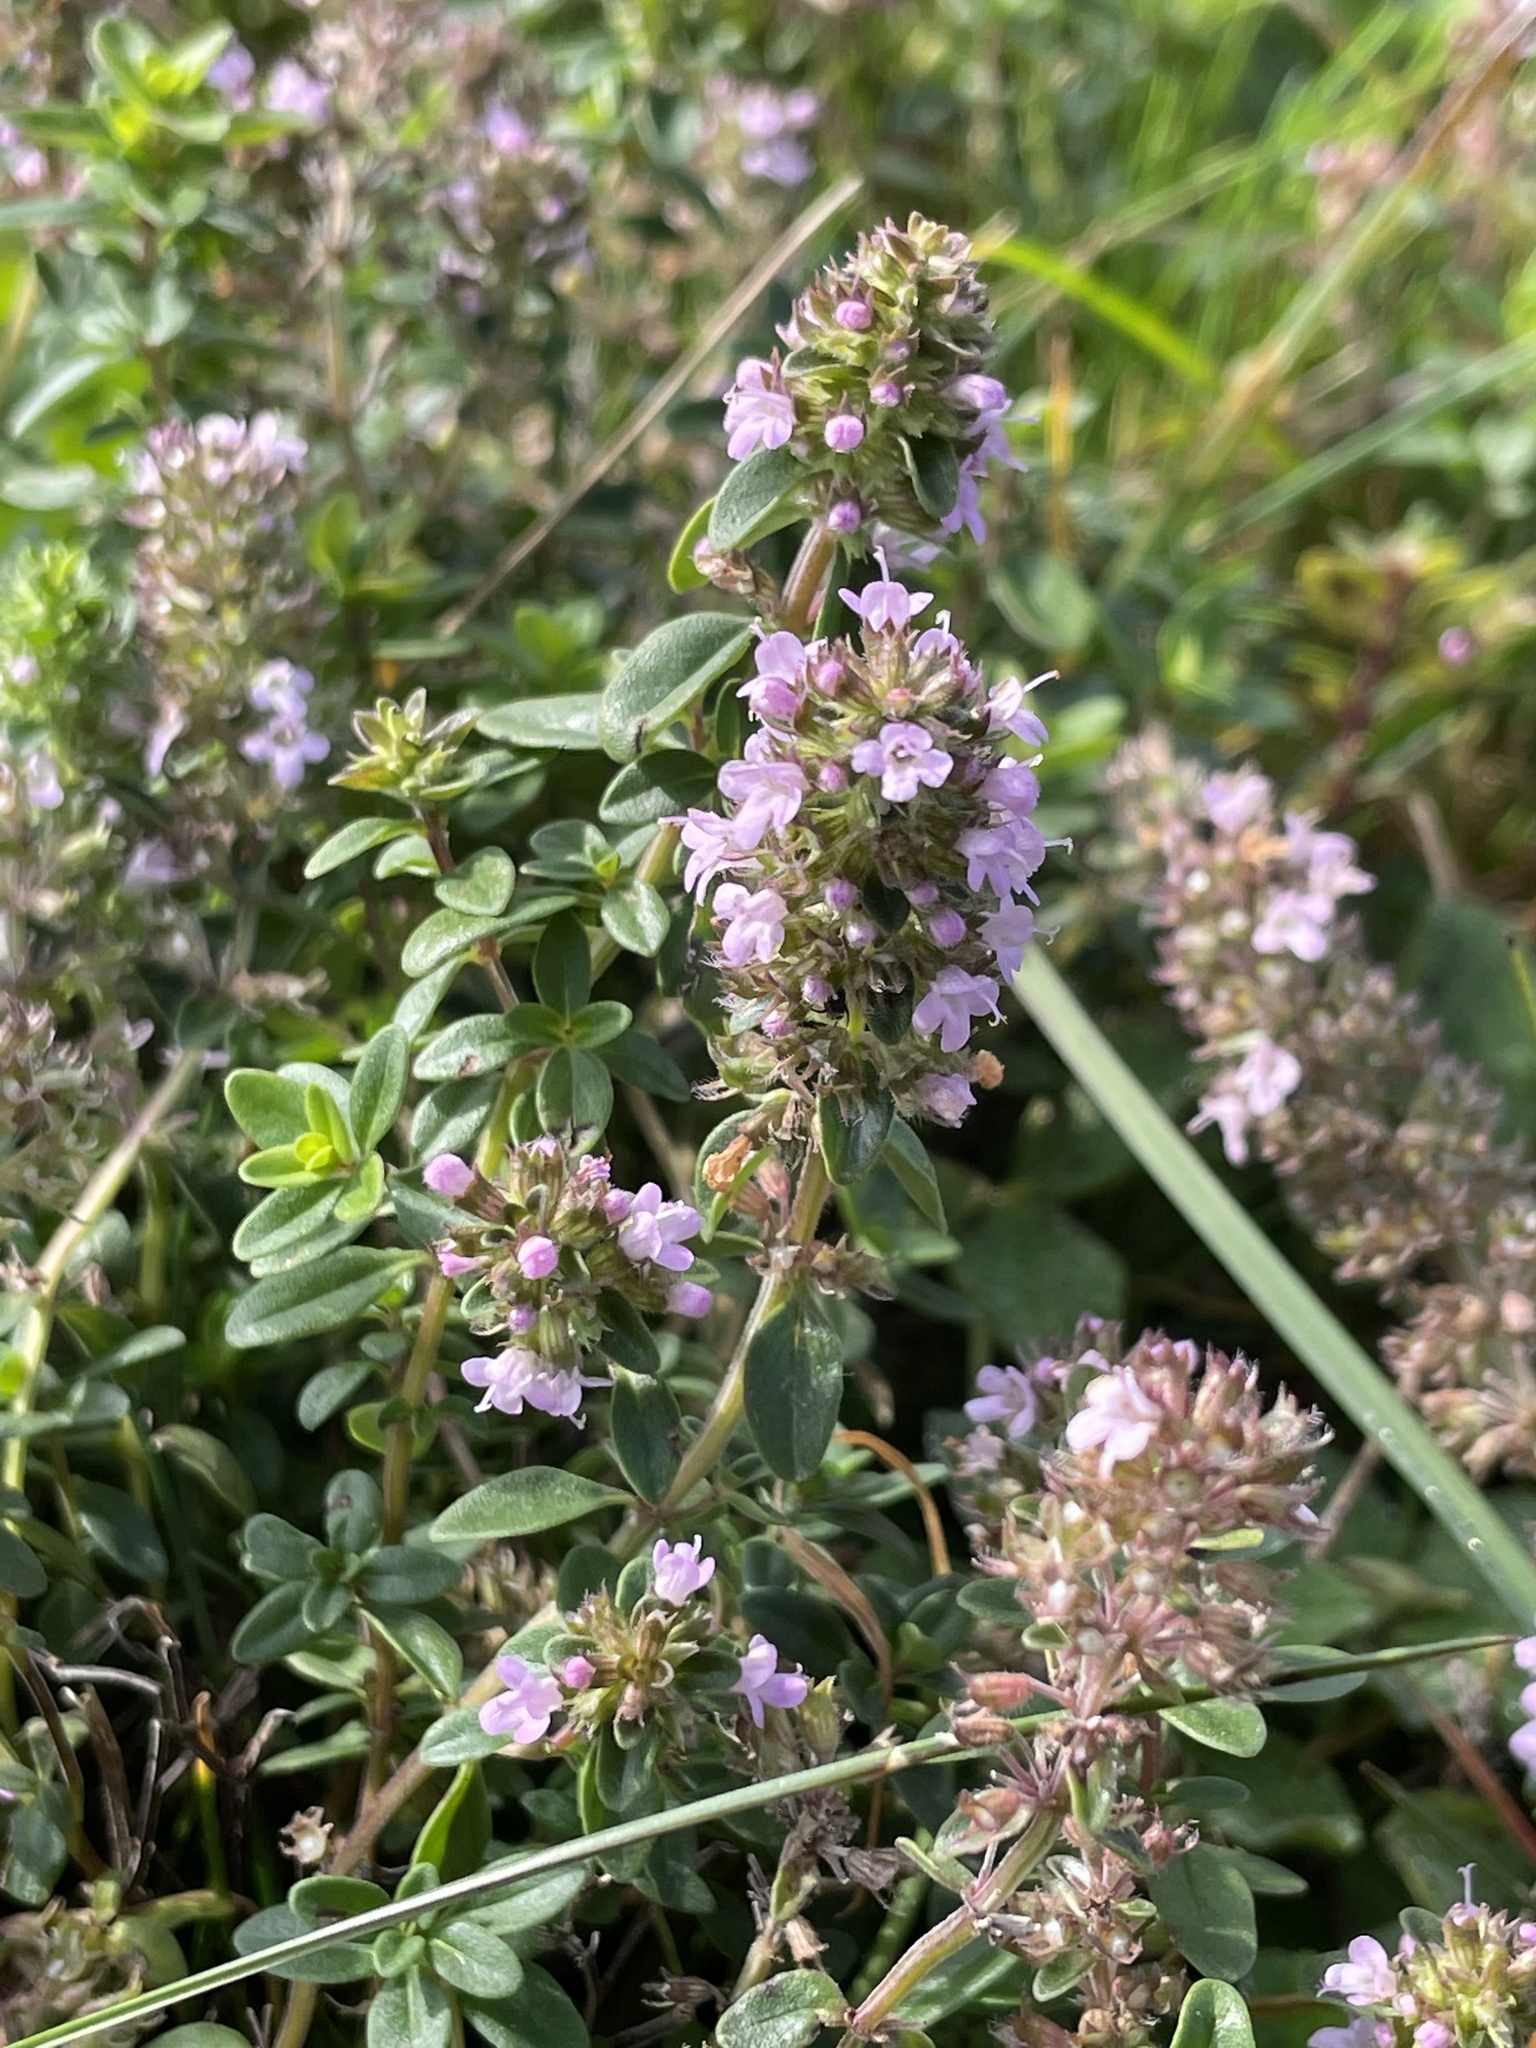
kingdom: Plantae
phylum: Tracheophyta
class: Magnoliopsida
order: Lamiales
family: Lamiaceae
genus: Thymus
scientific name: Thymus pulegioides
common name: Large thyme
